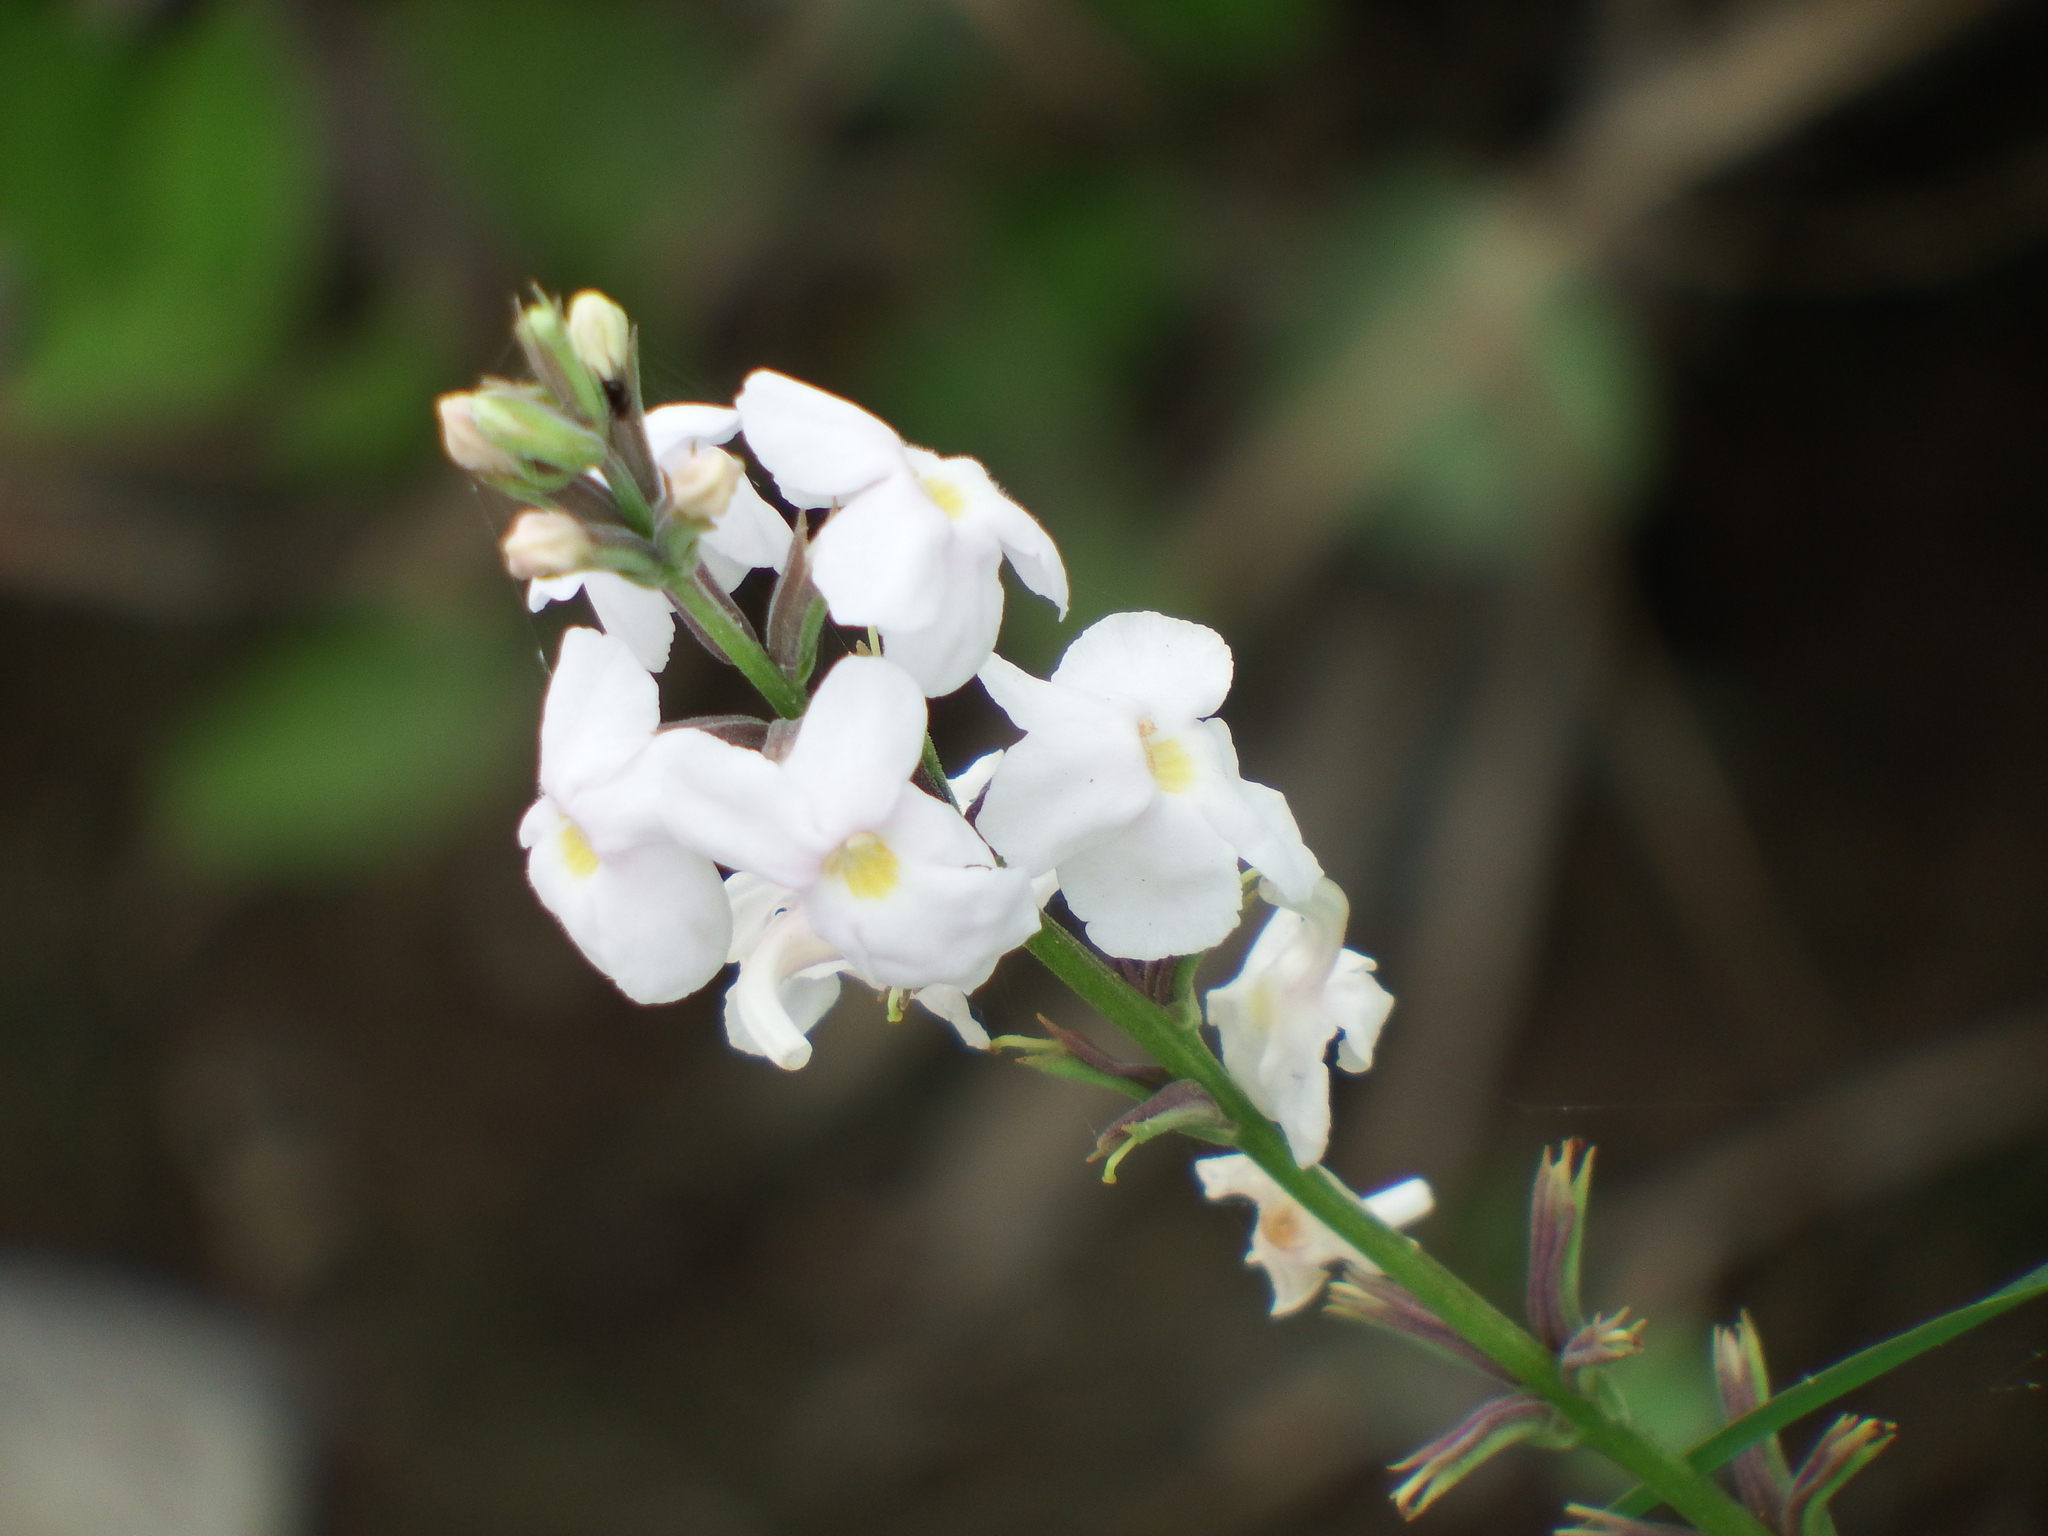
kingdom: Plantae
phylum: Tracheophyta
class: Magnoliopsida
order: Lamiales
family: Verbenaceae
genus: Pitraea
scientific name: Pitraea cuneato-ovata
